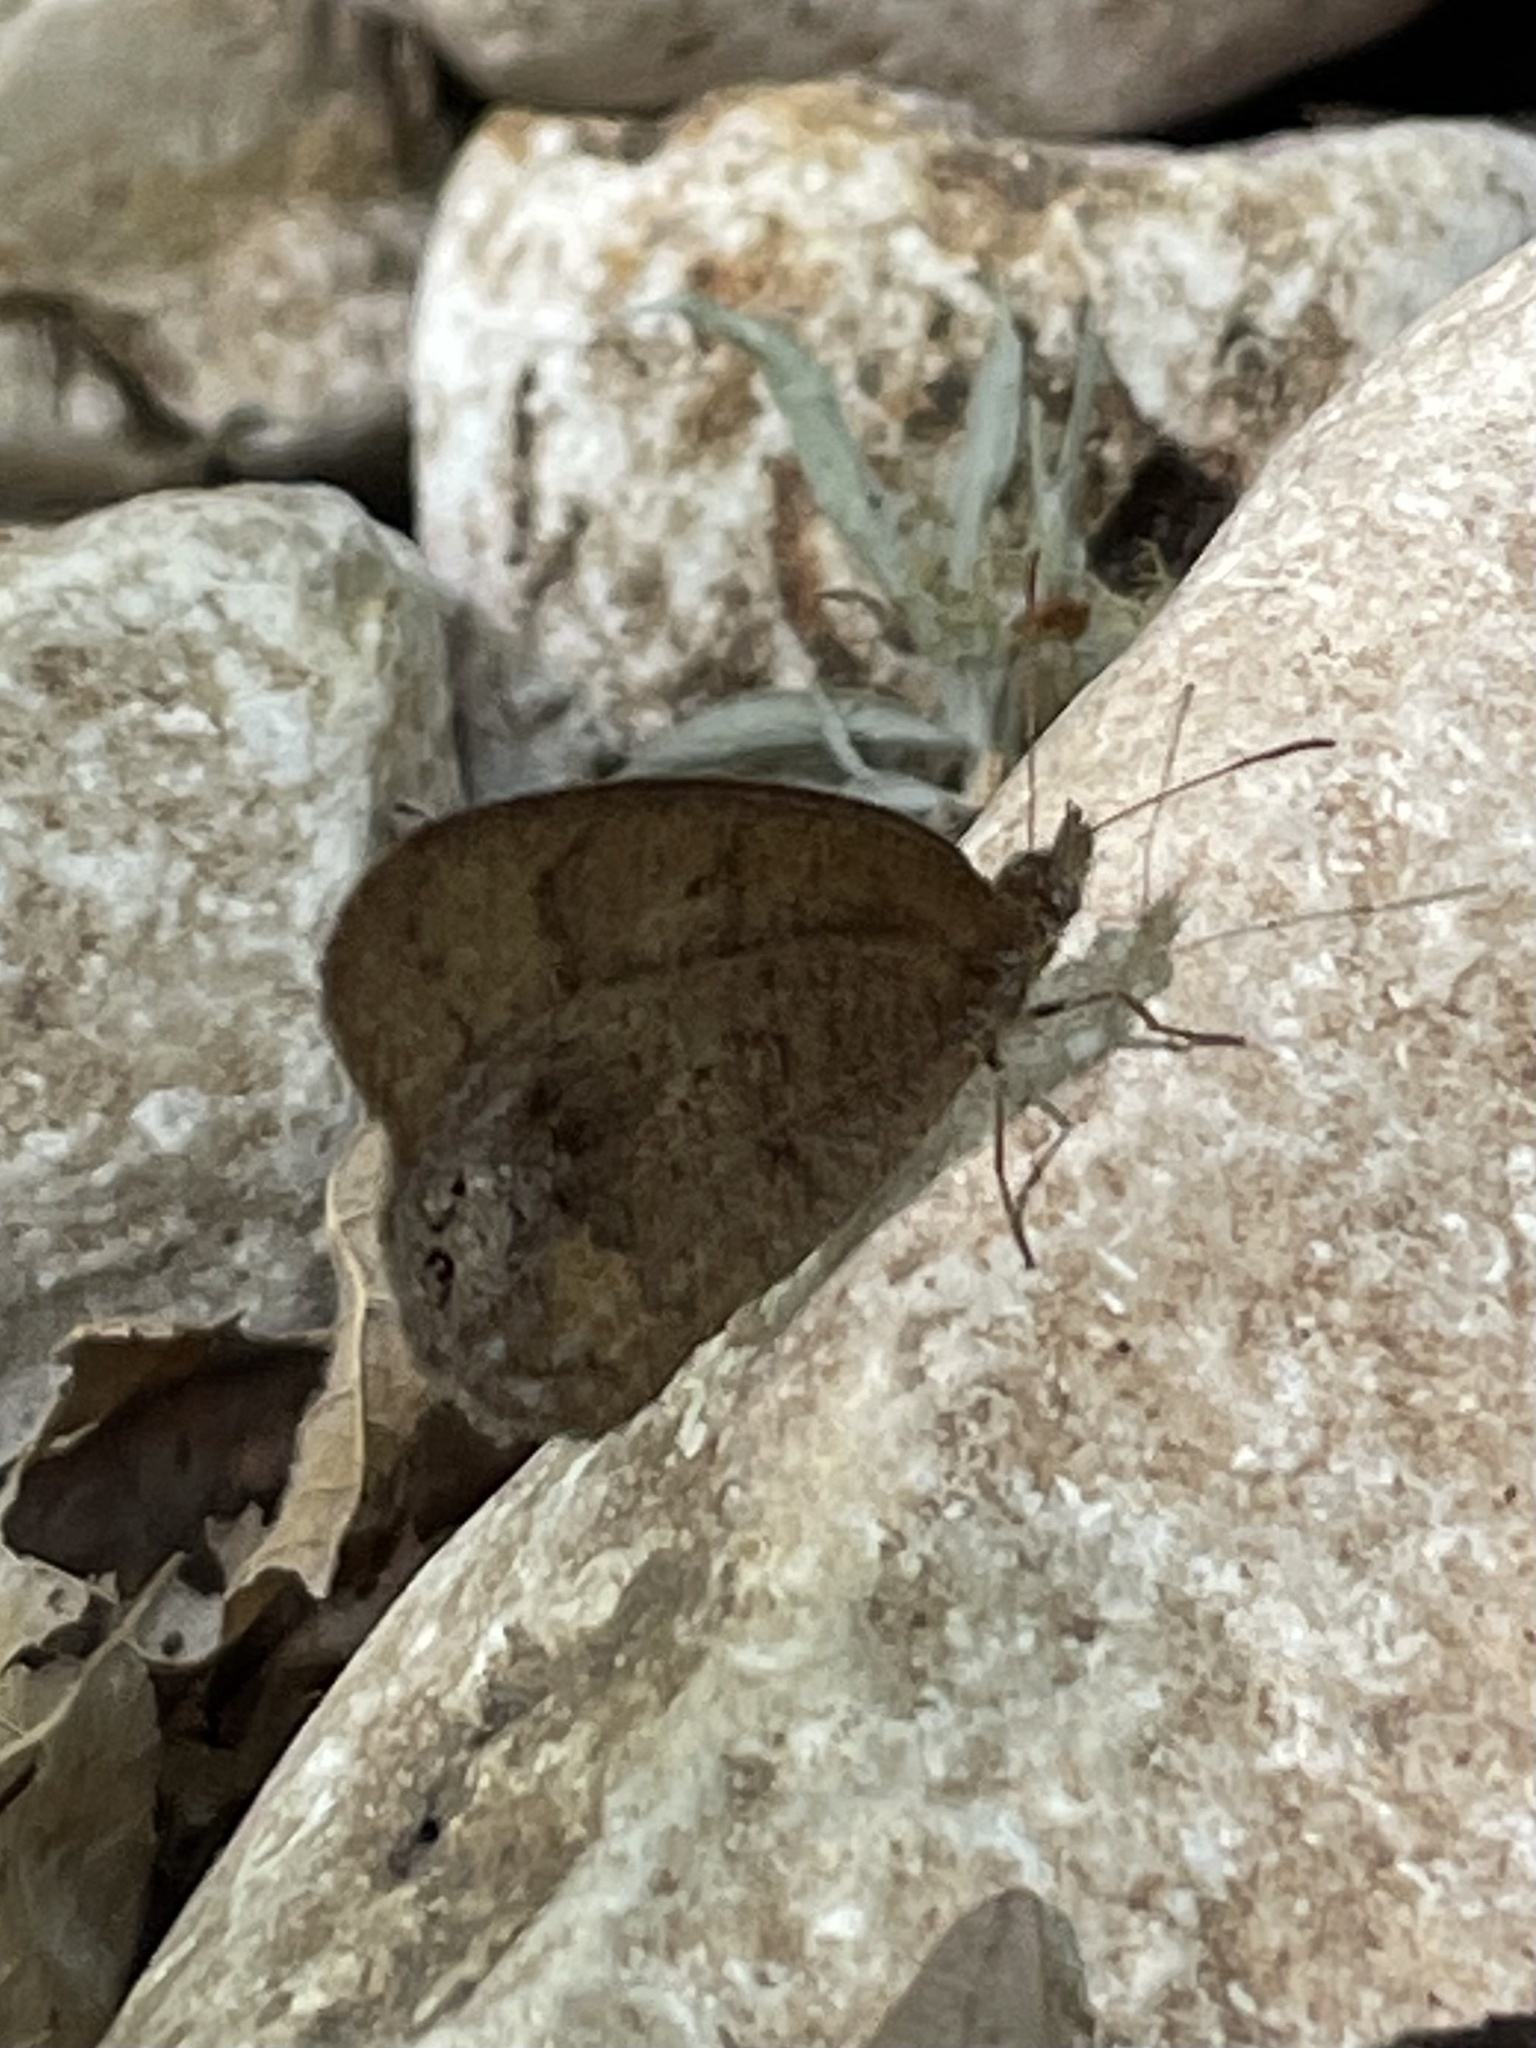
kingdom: Animalia
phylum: Arthropoda
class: Insecta
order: Lepidoptera
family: Nymphalidae
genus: Euptychia
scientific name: Euptychia cornelius
